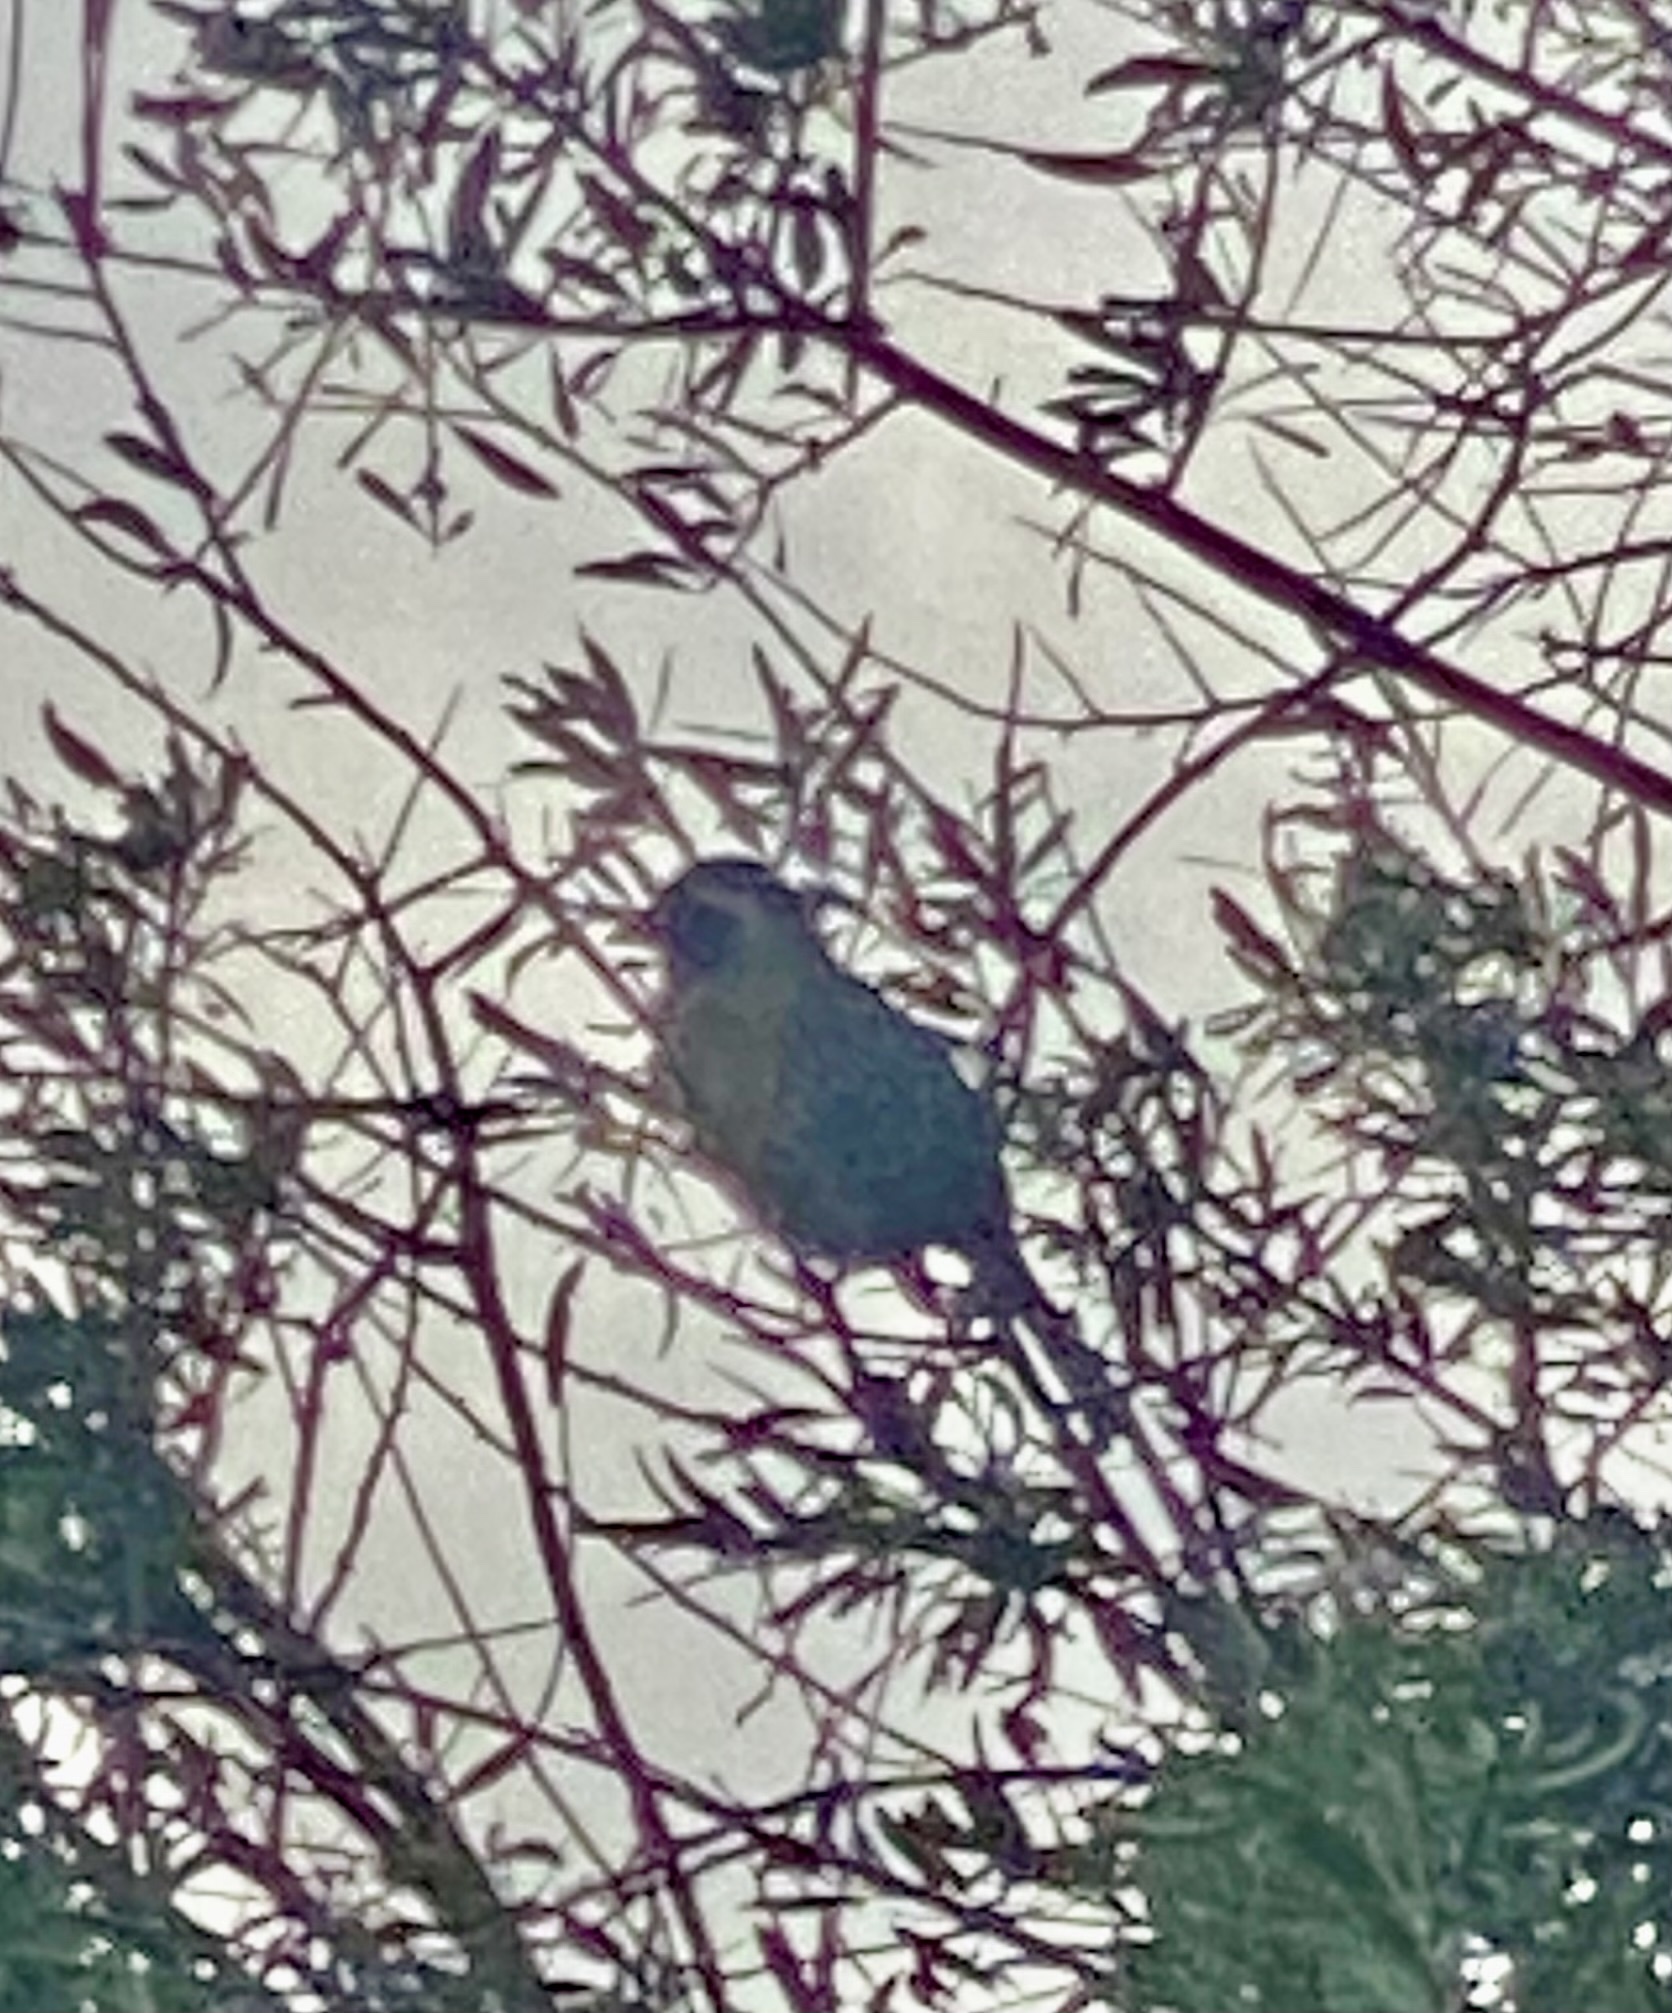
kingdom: Animalia
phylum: Chordata
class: Aves
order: Passeriformes
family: Thraupidae
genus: Saltator
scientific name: Saltator aurantiirostris
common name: Golden-billed saltator
